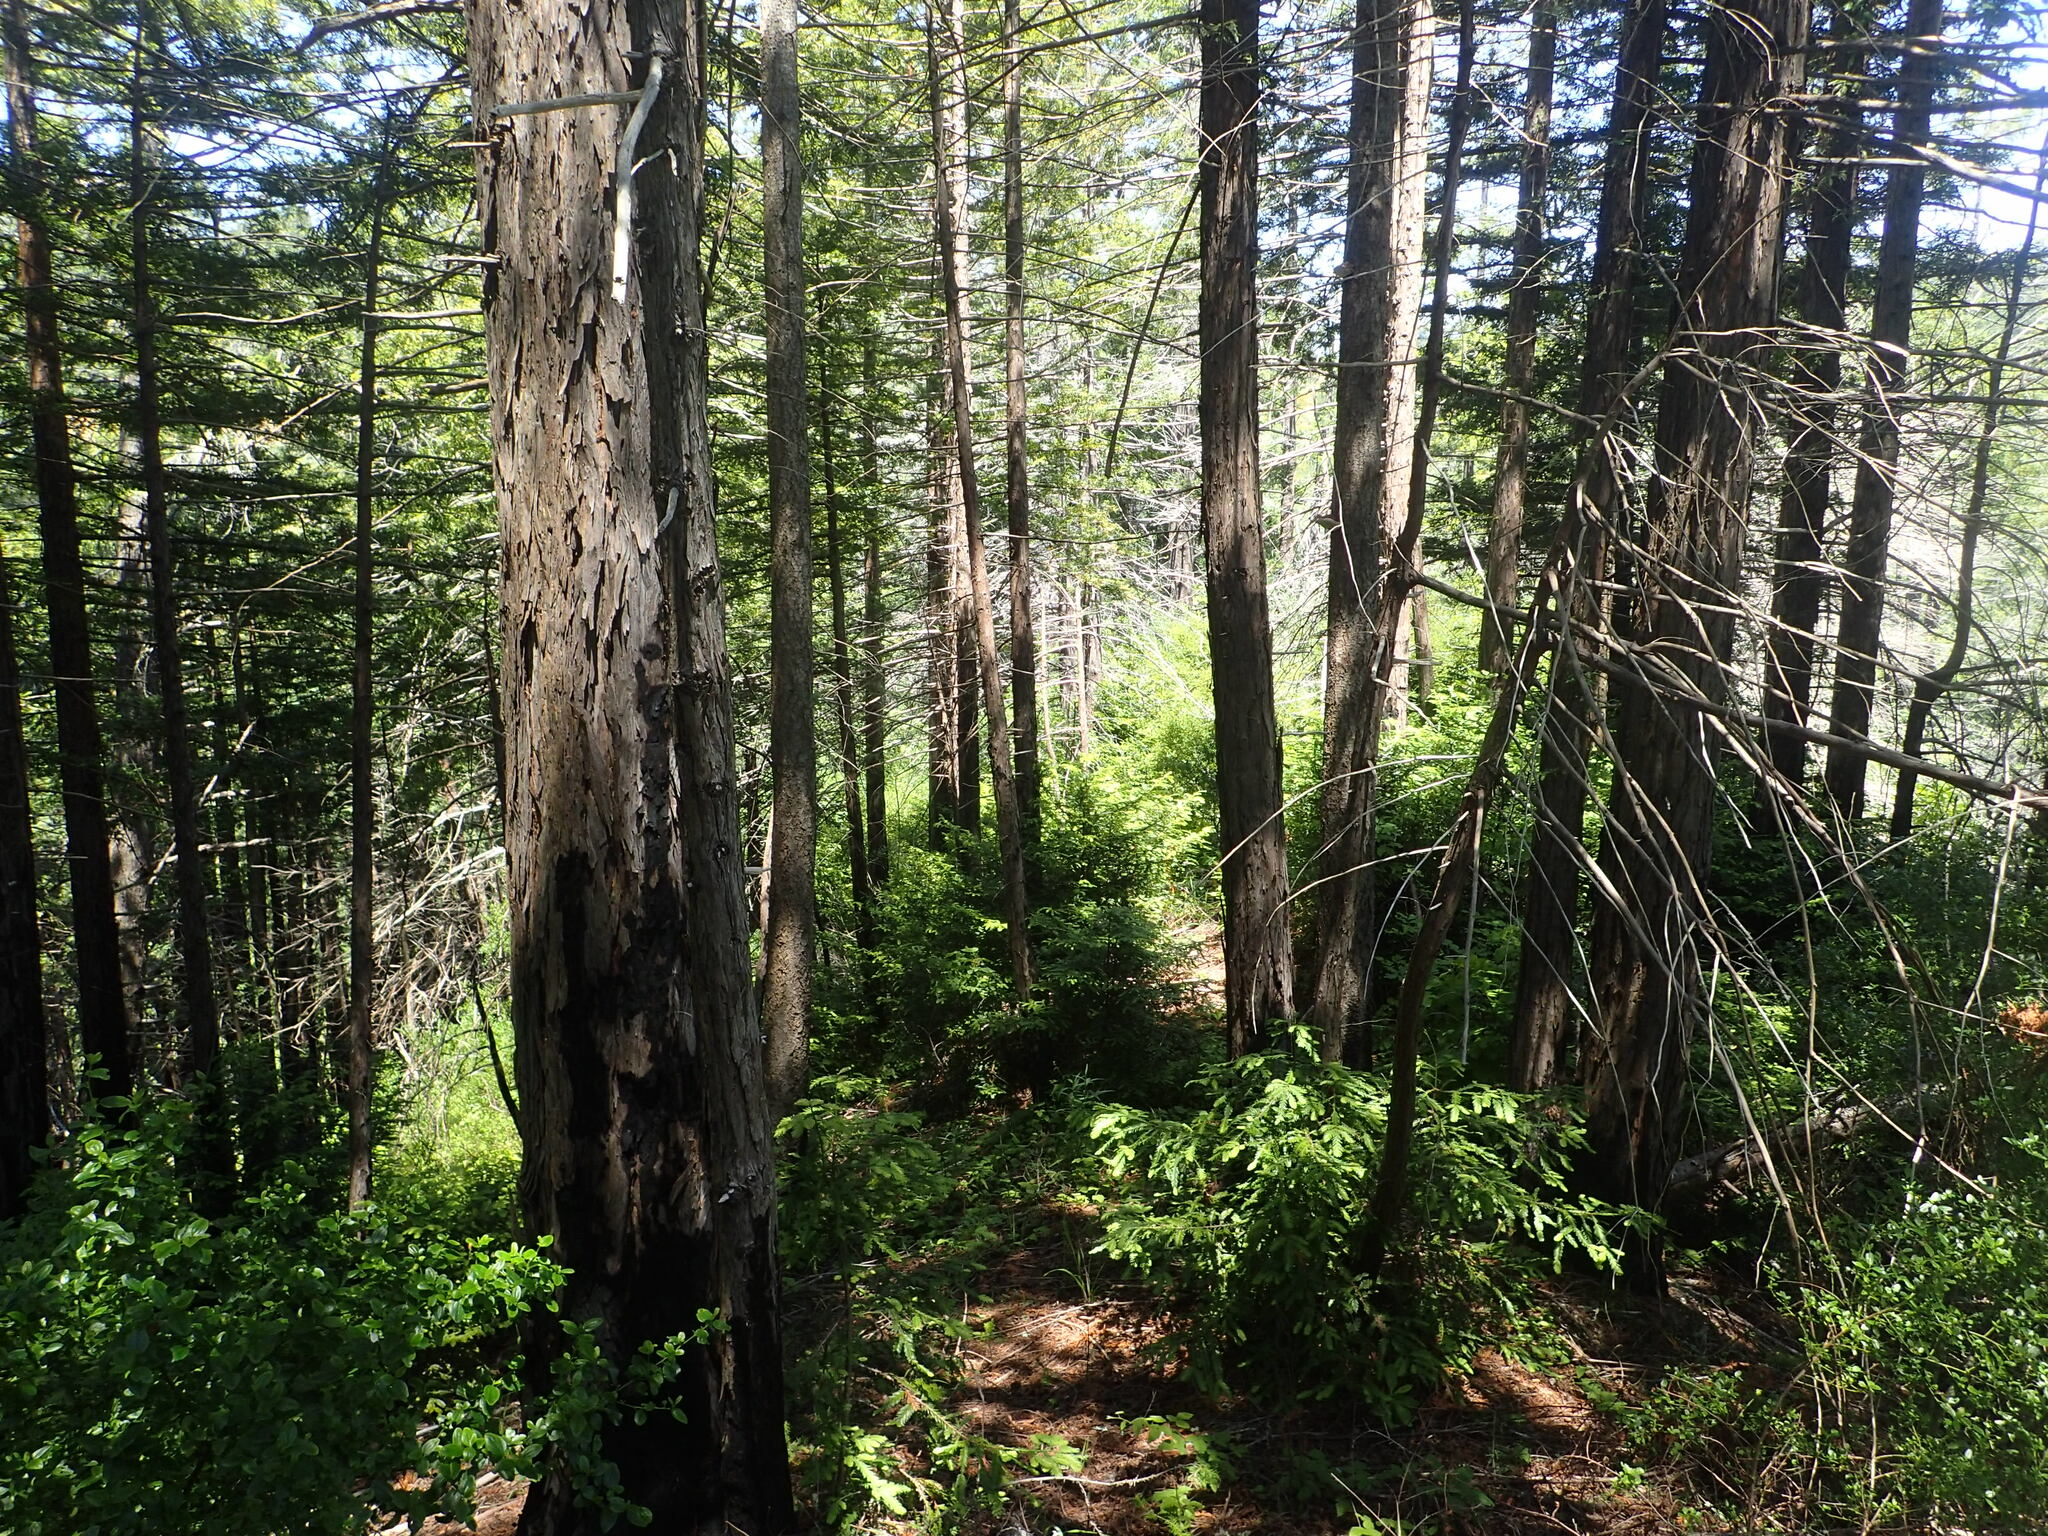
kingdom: Plantae
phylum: Tracheophyta
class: Pinopsida
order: Pinales
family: Cupressaceae
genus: Sequoia
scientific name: Sequoia sempervirens
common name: Coast redwood
